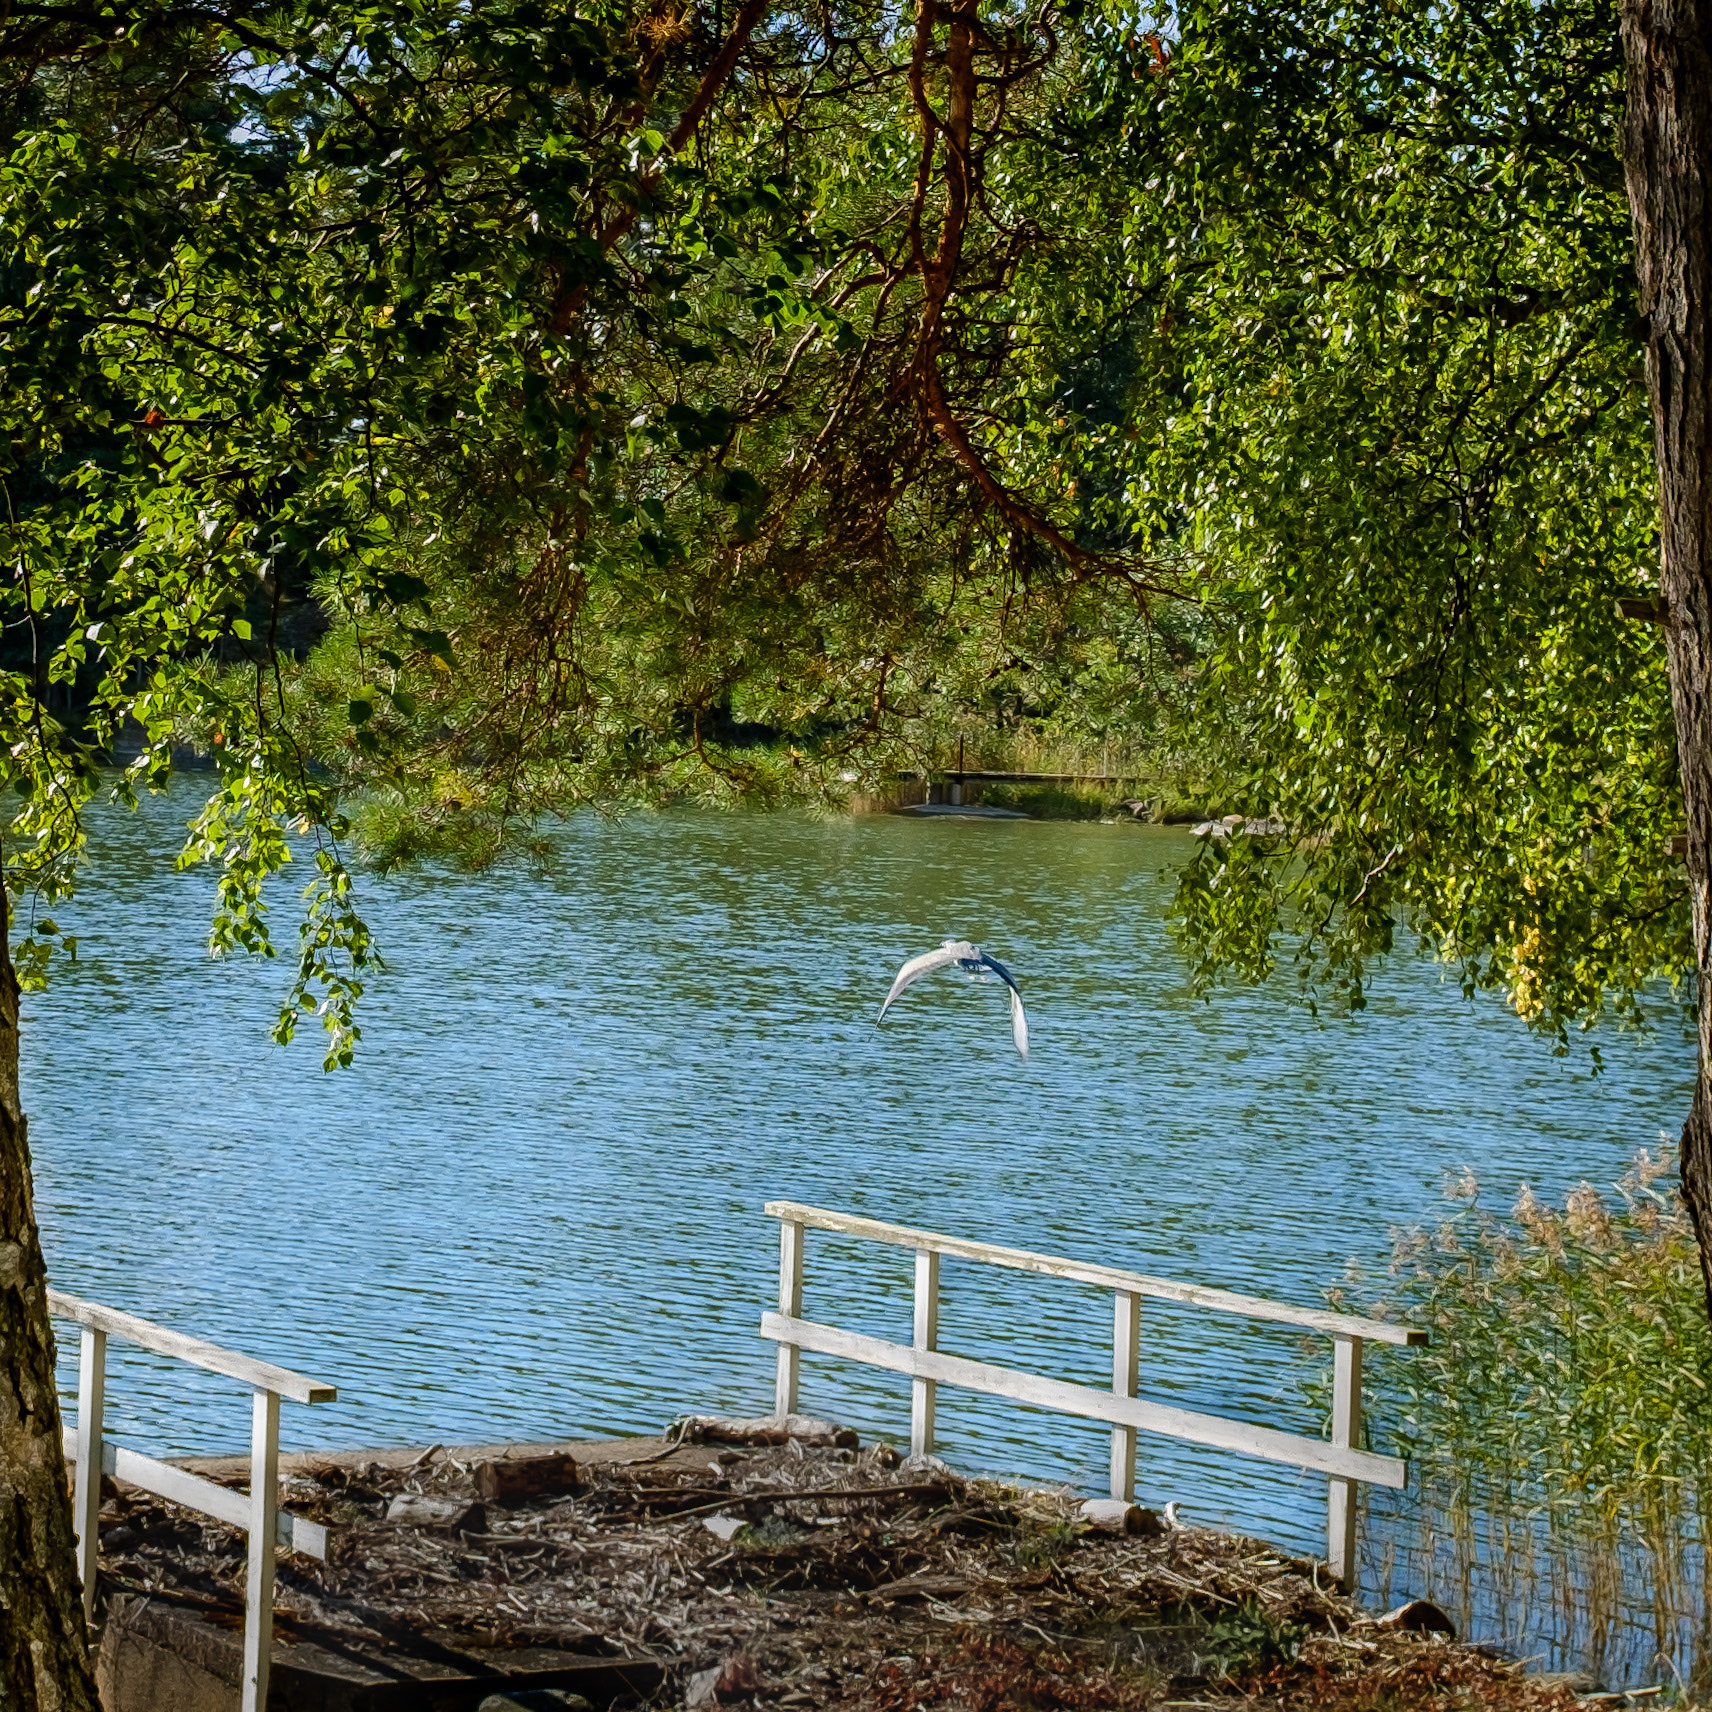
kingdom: Animalia
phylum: Chordata
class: Aves
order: Pelecaniformes
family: Ardeidae
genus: Ardea
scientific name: Ardea cinerea
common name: Grey heron
